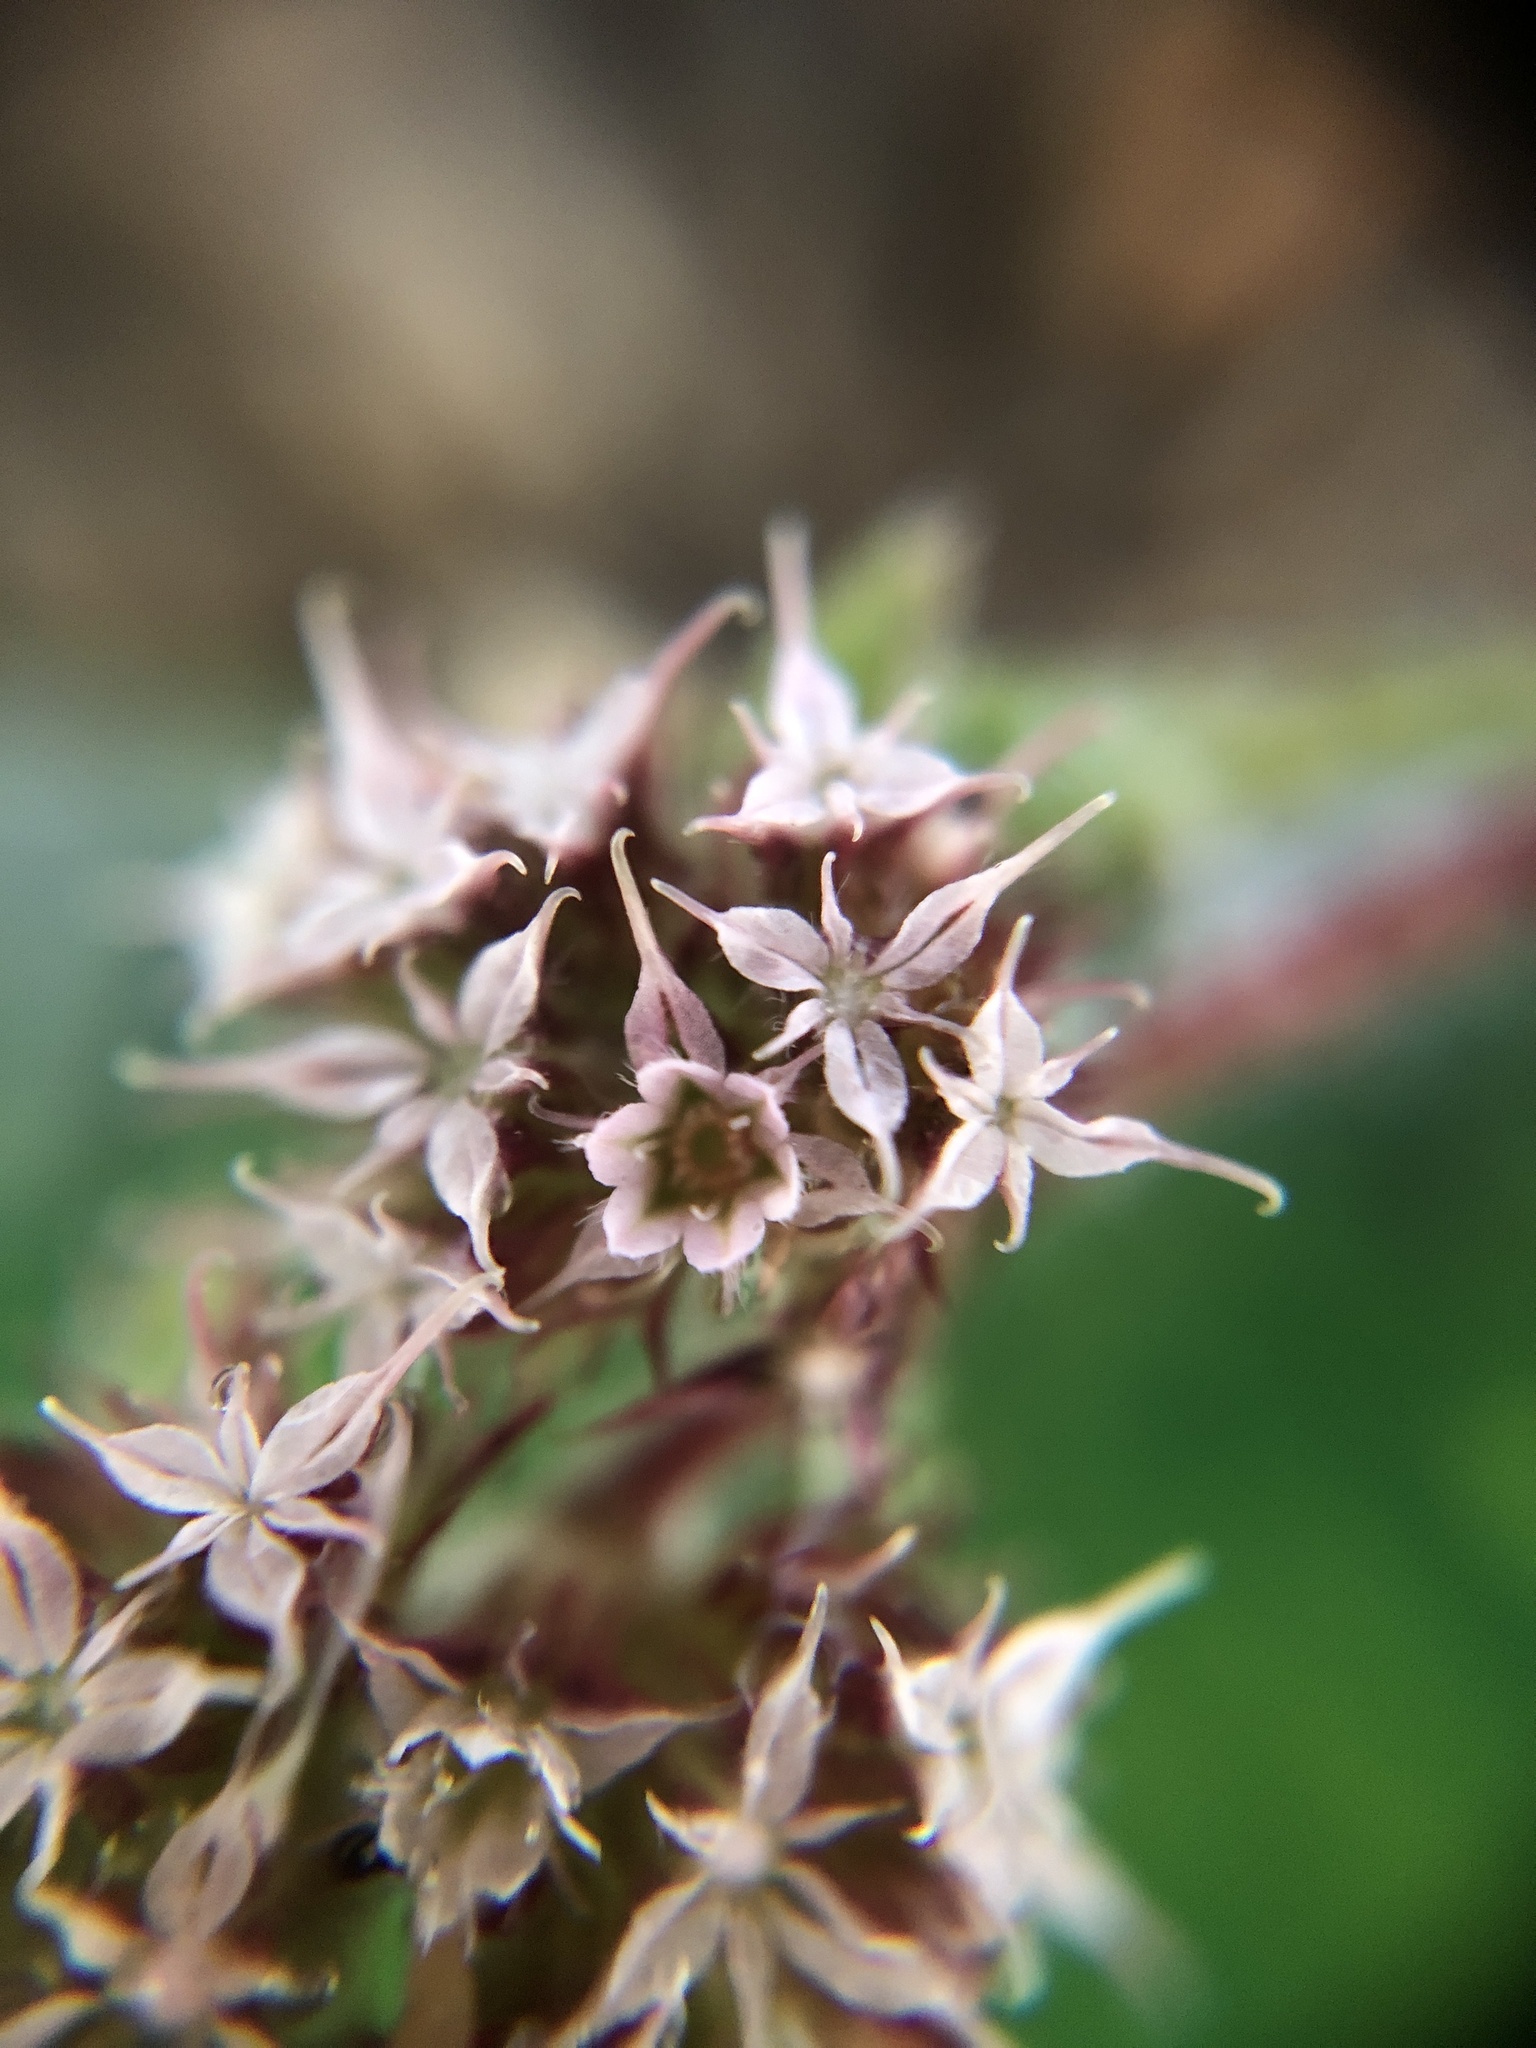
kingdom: Plantae
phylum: Tracheophyta
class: Magnoliopsida
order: Caryophyllales
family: Polygonaceae
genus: Chorizanthe
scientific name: Chorizanthe pungens
